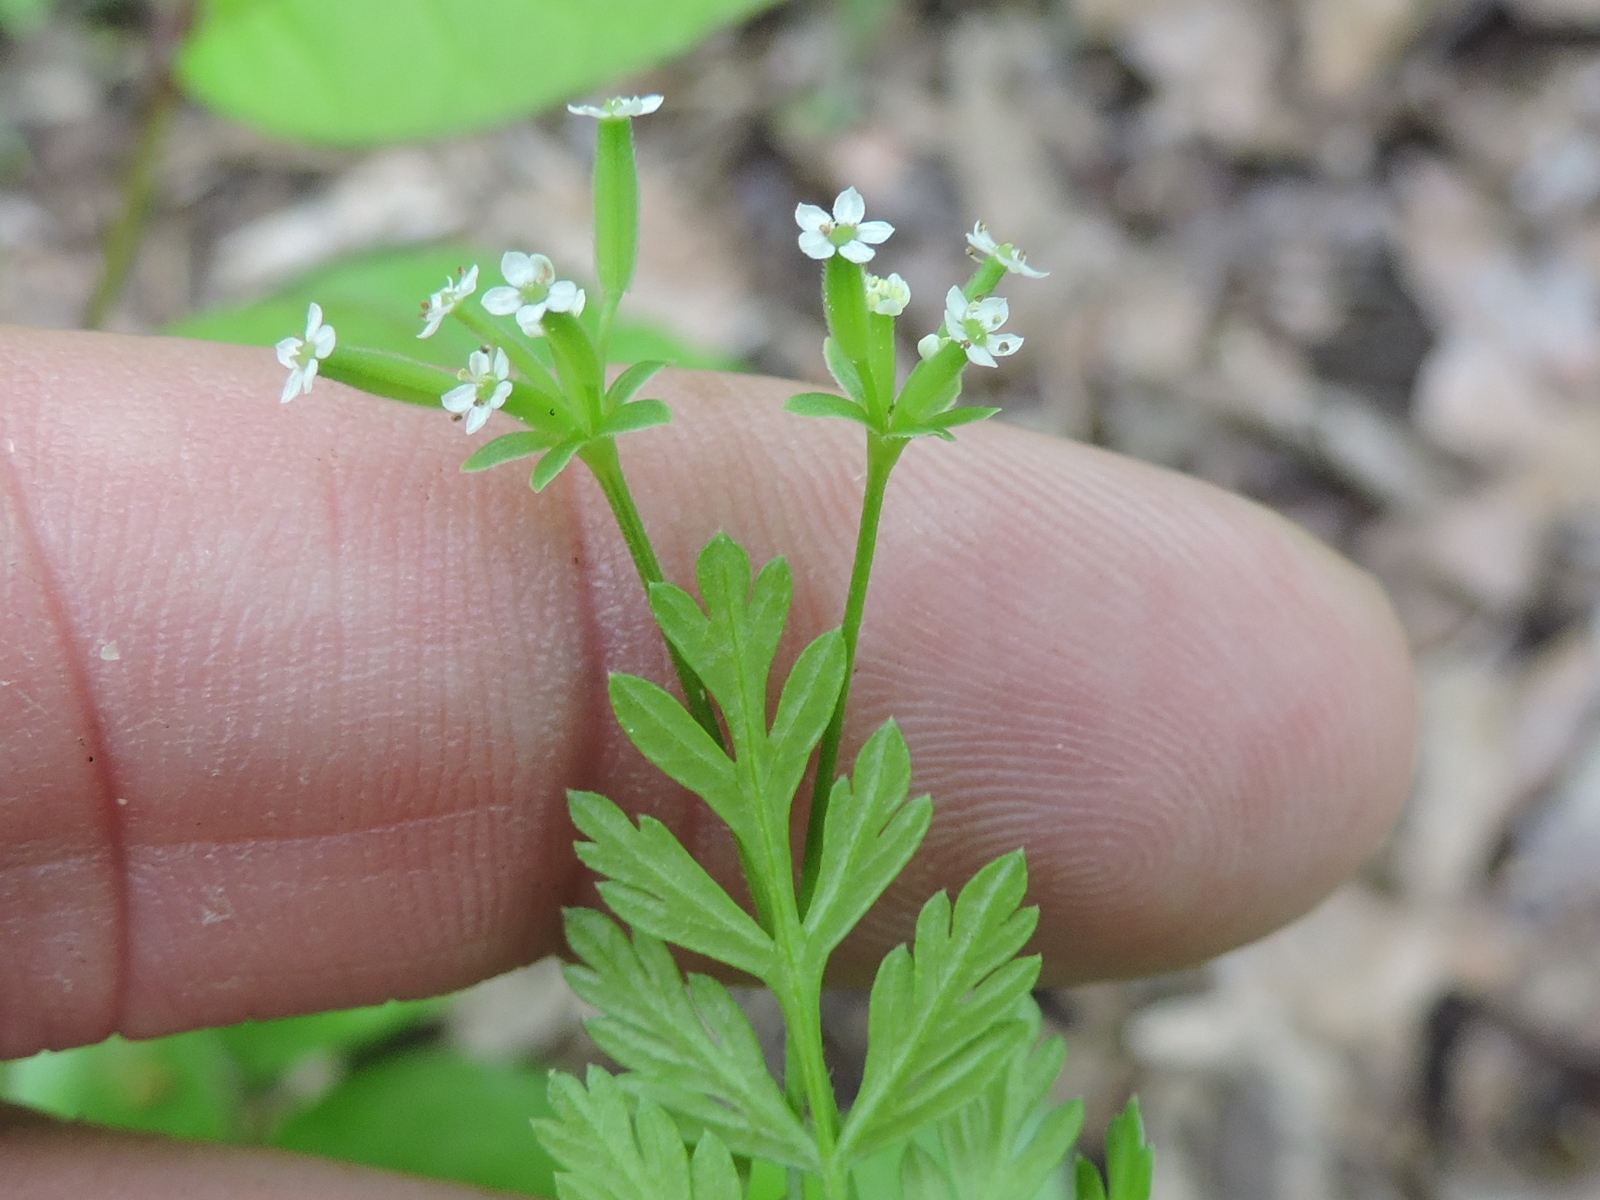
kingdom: Plantae
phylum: Tracheophyta
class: Magnoliopsida
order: Apiales
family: Apiaceae
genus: Chaerophyllum
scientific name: Chaerophyllum tainturieri
